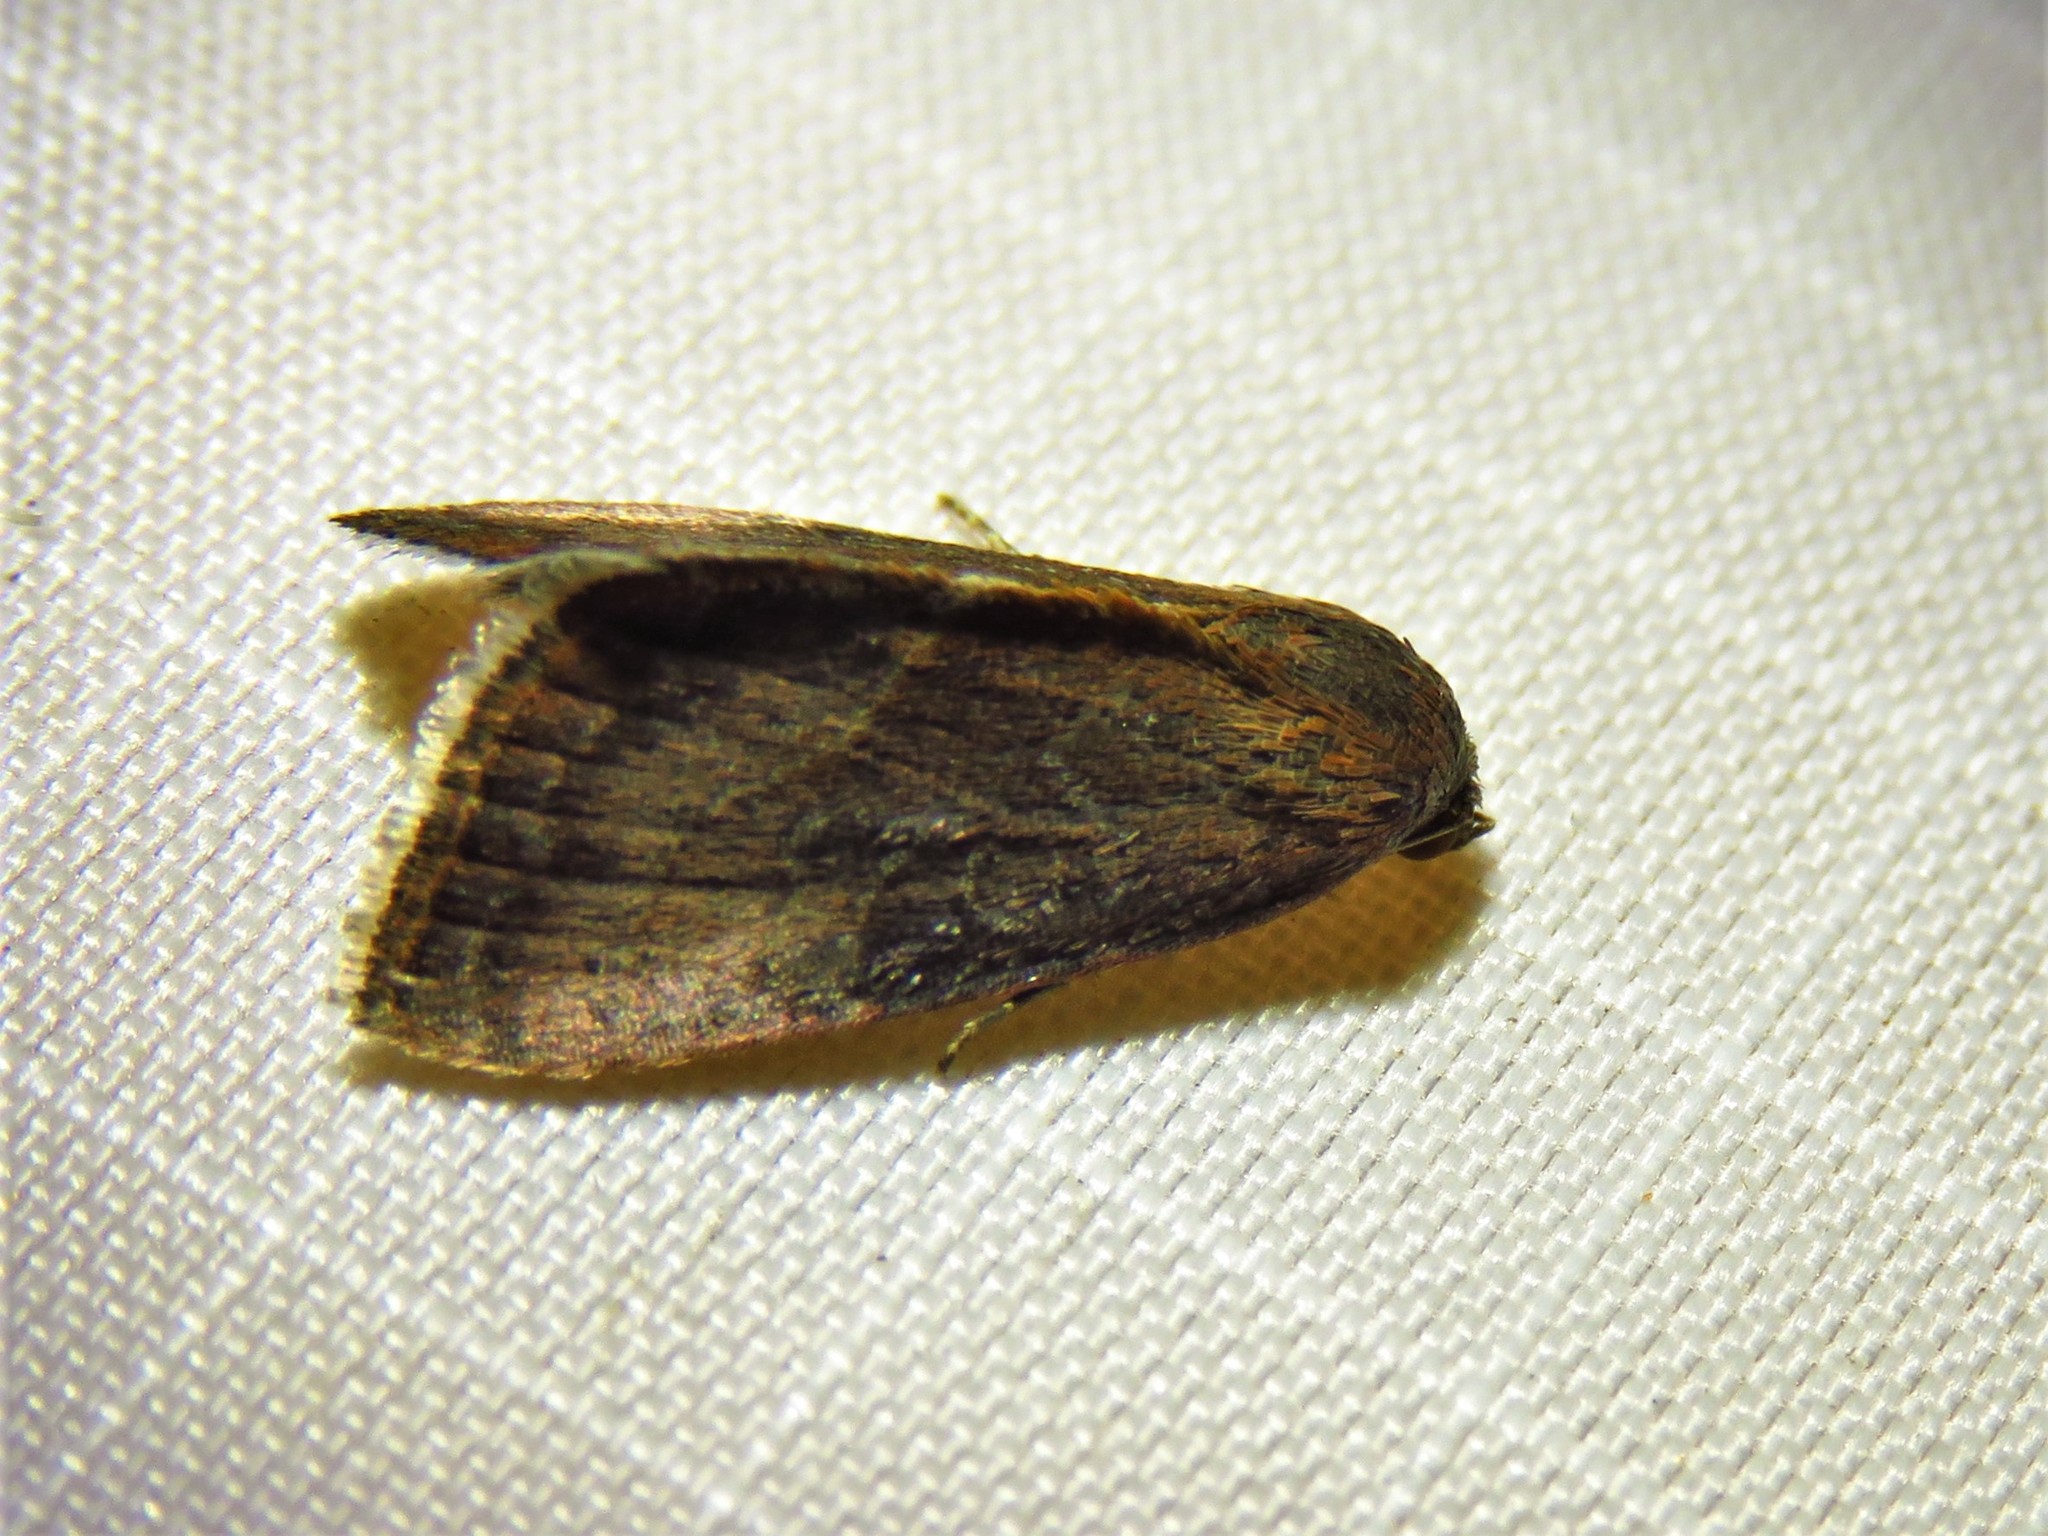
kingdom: Animalia
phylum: Arthropoda
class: Insecta
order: Lepidoptera
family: Noctuidae
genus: Galgula
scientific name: Galgula partita
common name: Wedgeling
